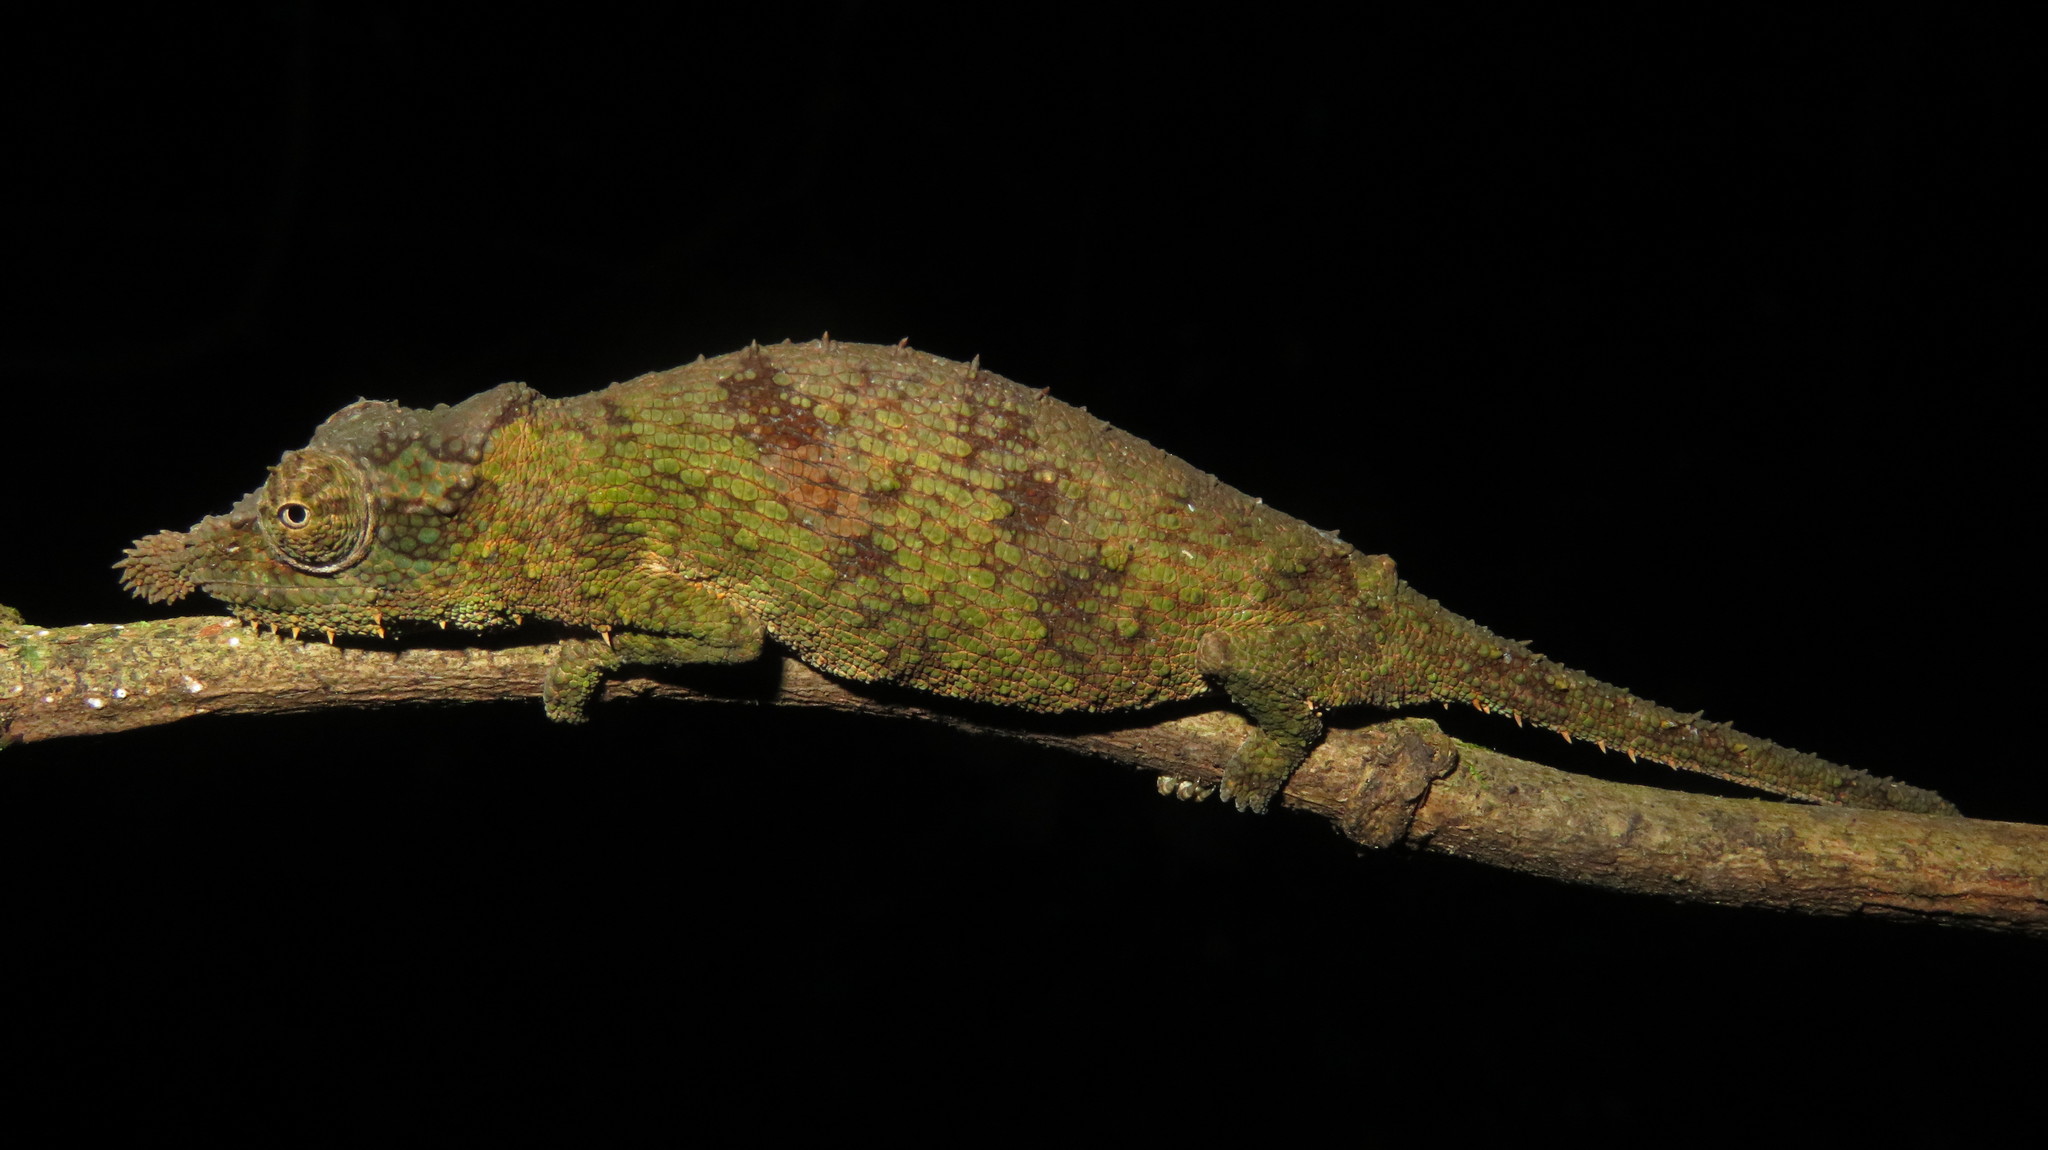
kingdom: Animalia
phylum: Chordata
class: Squamata
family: Chamaeleonidae
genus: Rhampholeon
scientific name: Rhampholeon spinosus
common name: Rosette-nosed pygmy chameleon
